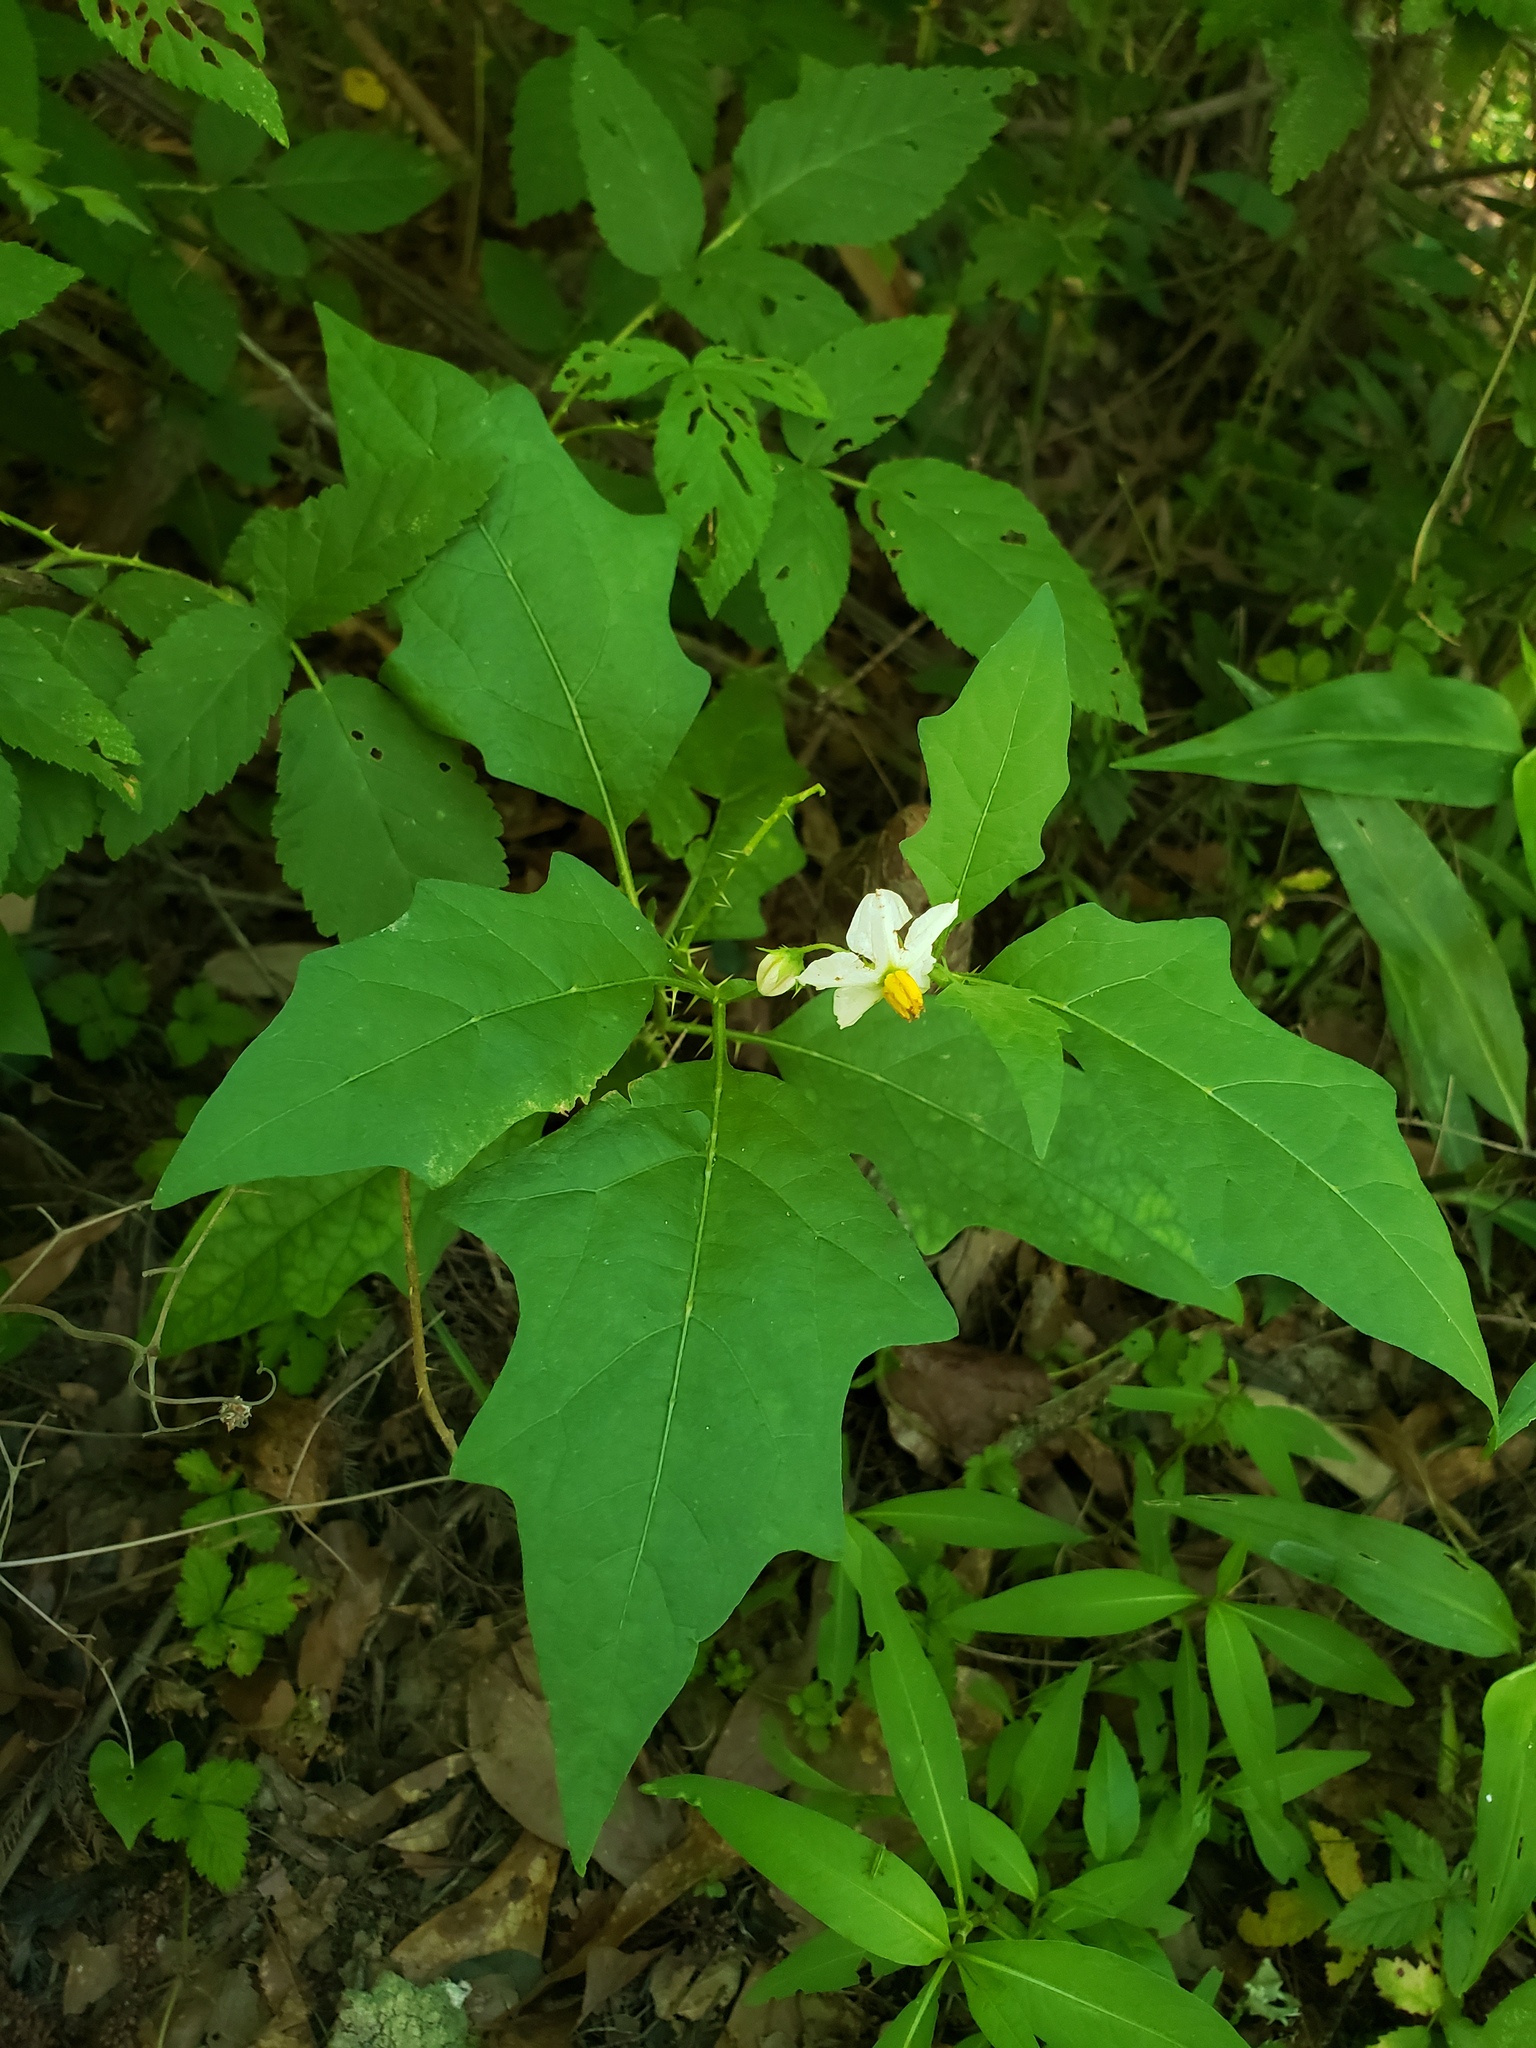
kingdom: Plantae
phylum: Tracheophyta
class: Magnoliopsida
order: Solanales
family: Solanaceae
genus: Solanum
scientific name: Solanum carolinense
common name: Horse-nettle
